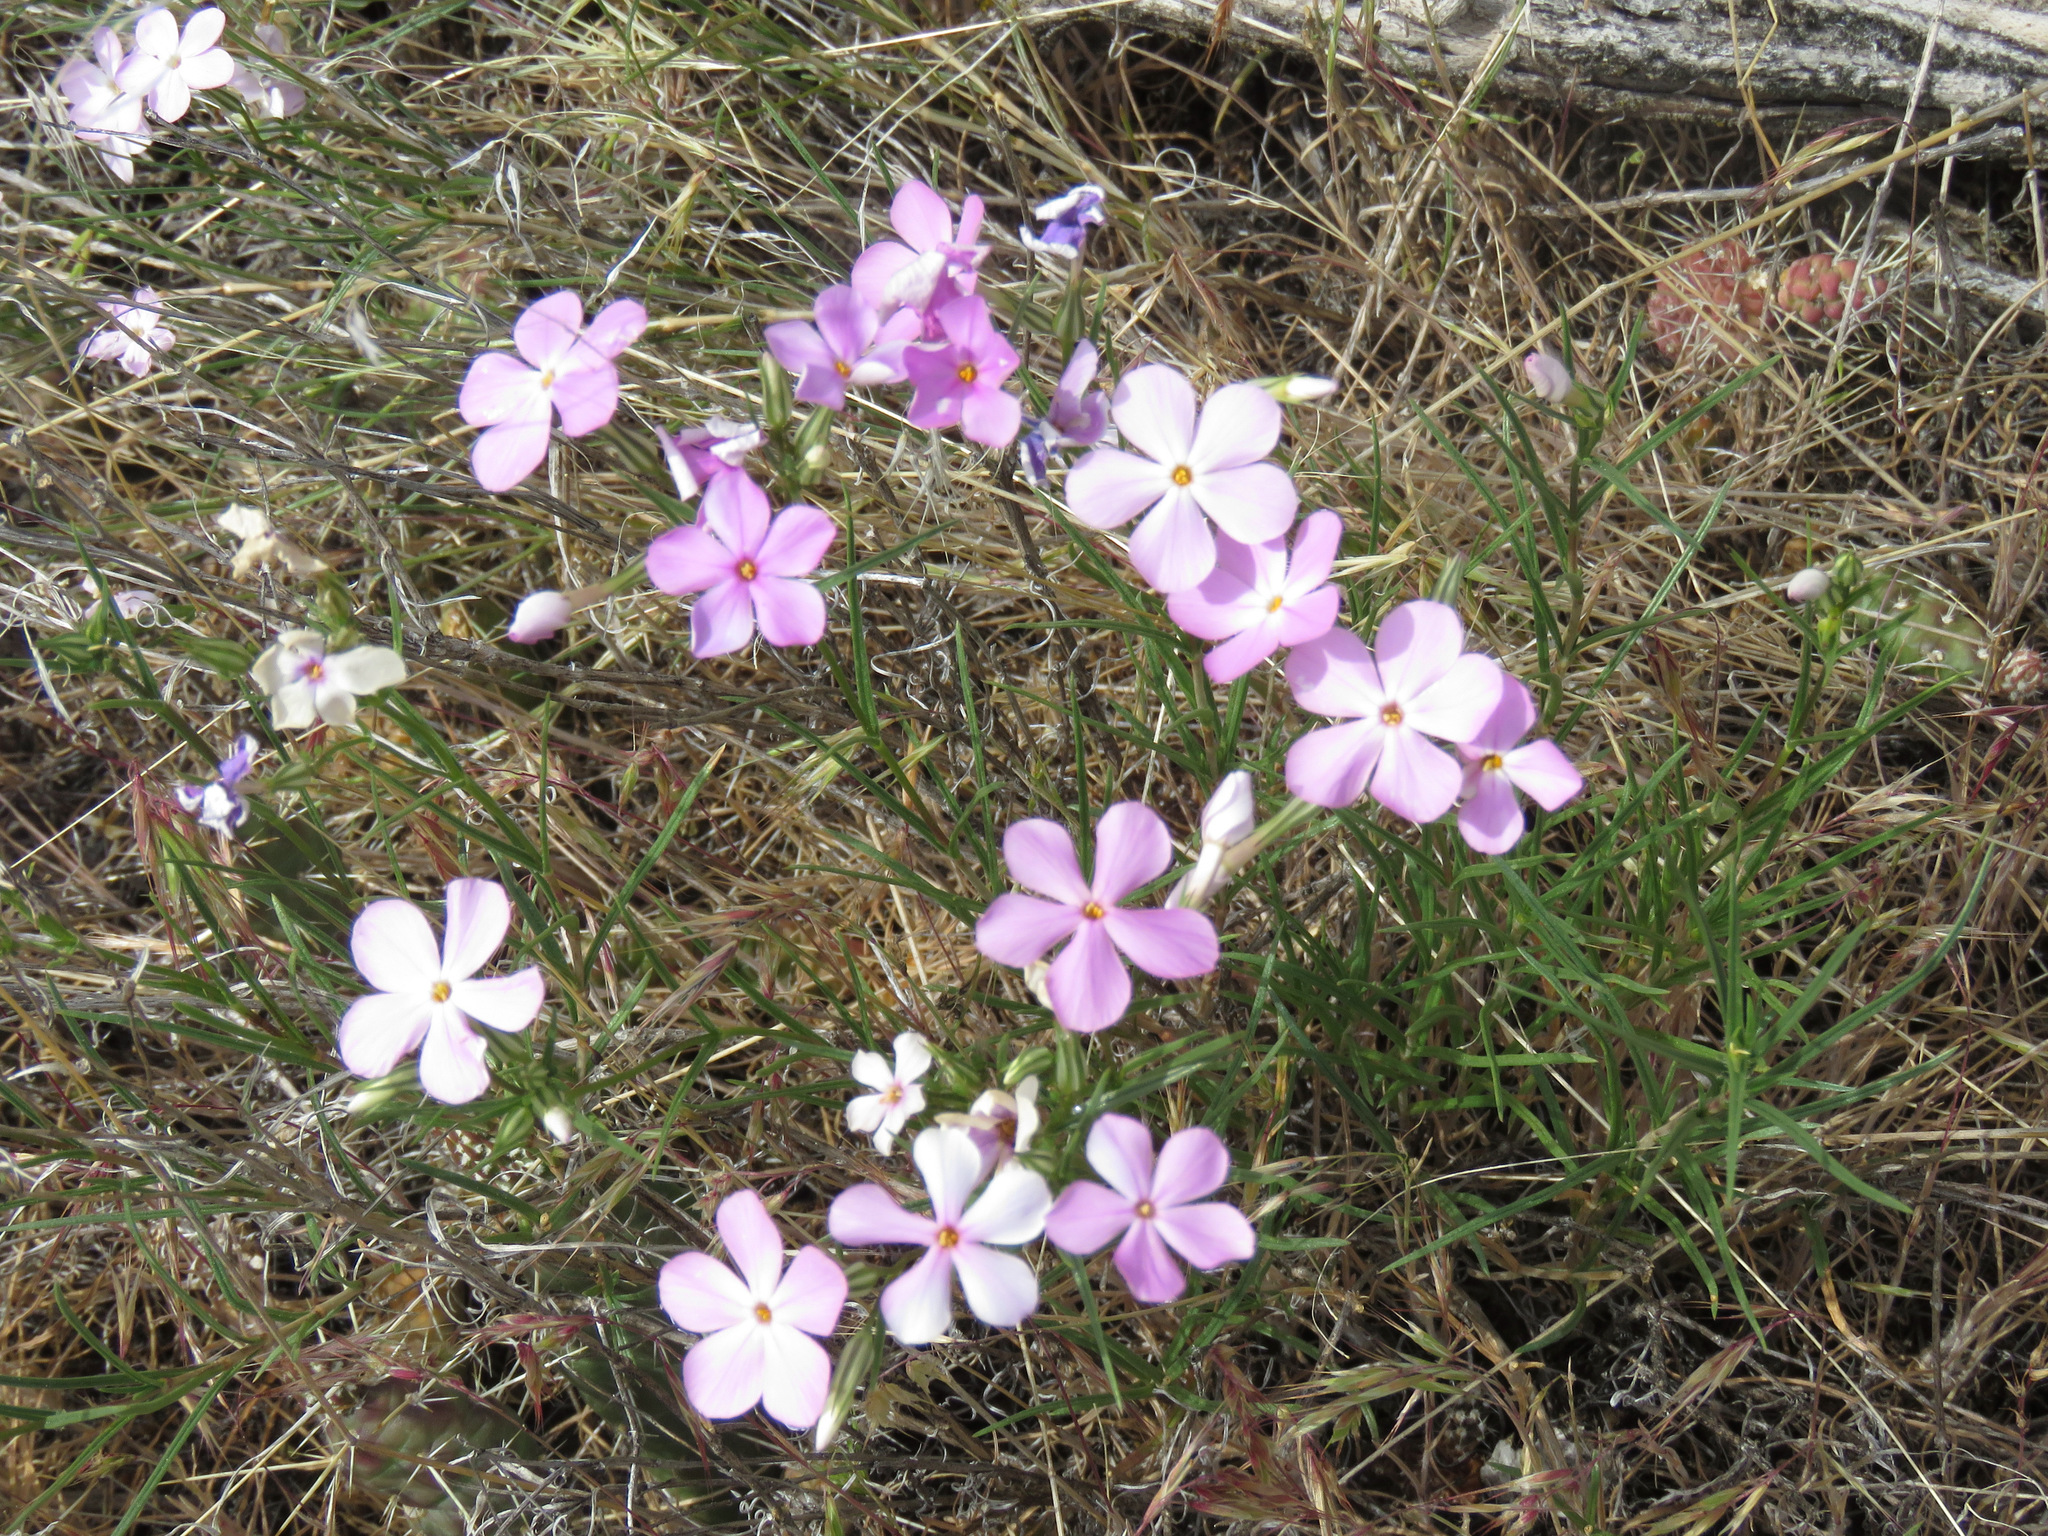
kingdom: Plantae
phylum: Tracheophyta
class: Magnoliopsida
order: Ericales
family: Polemoniaceae
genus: Phlox
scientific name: Phlox longifolia
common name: Longleaf phlox
